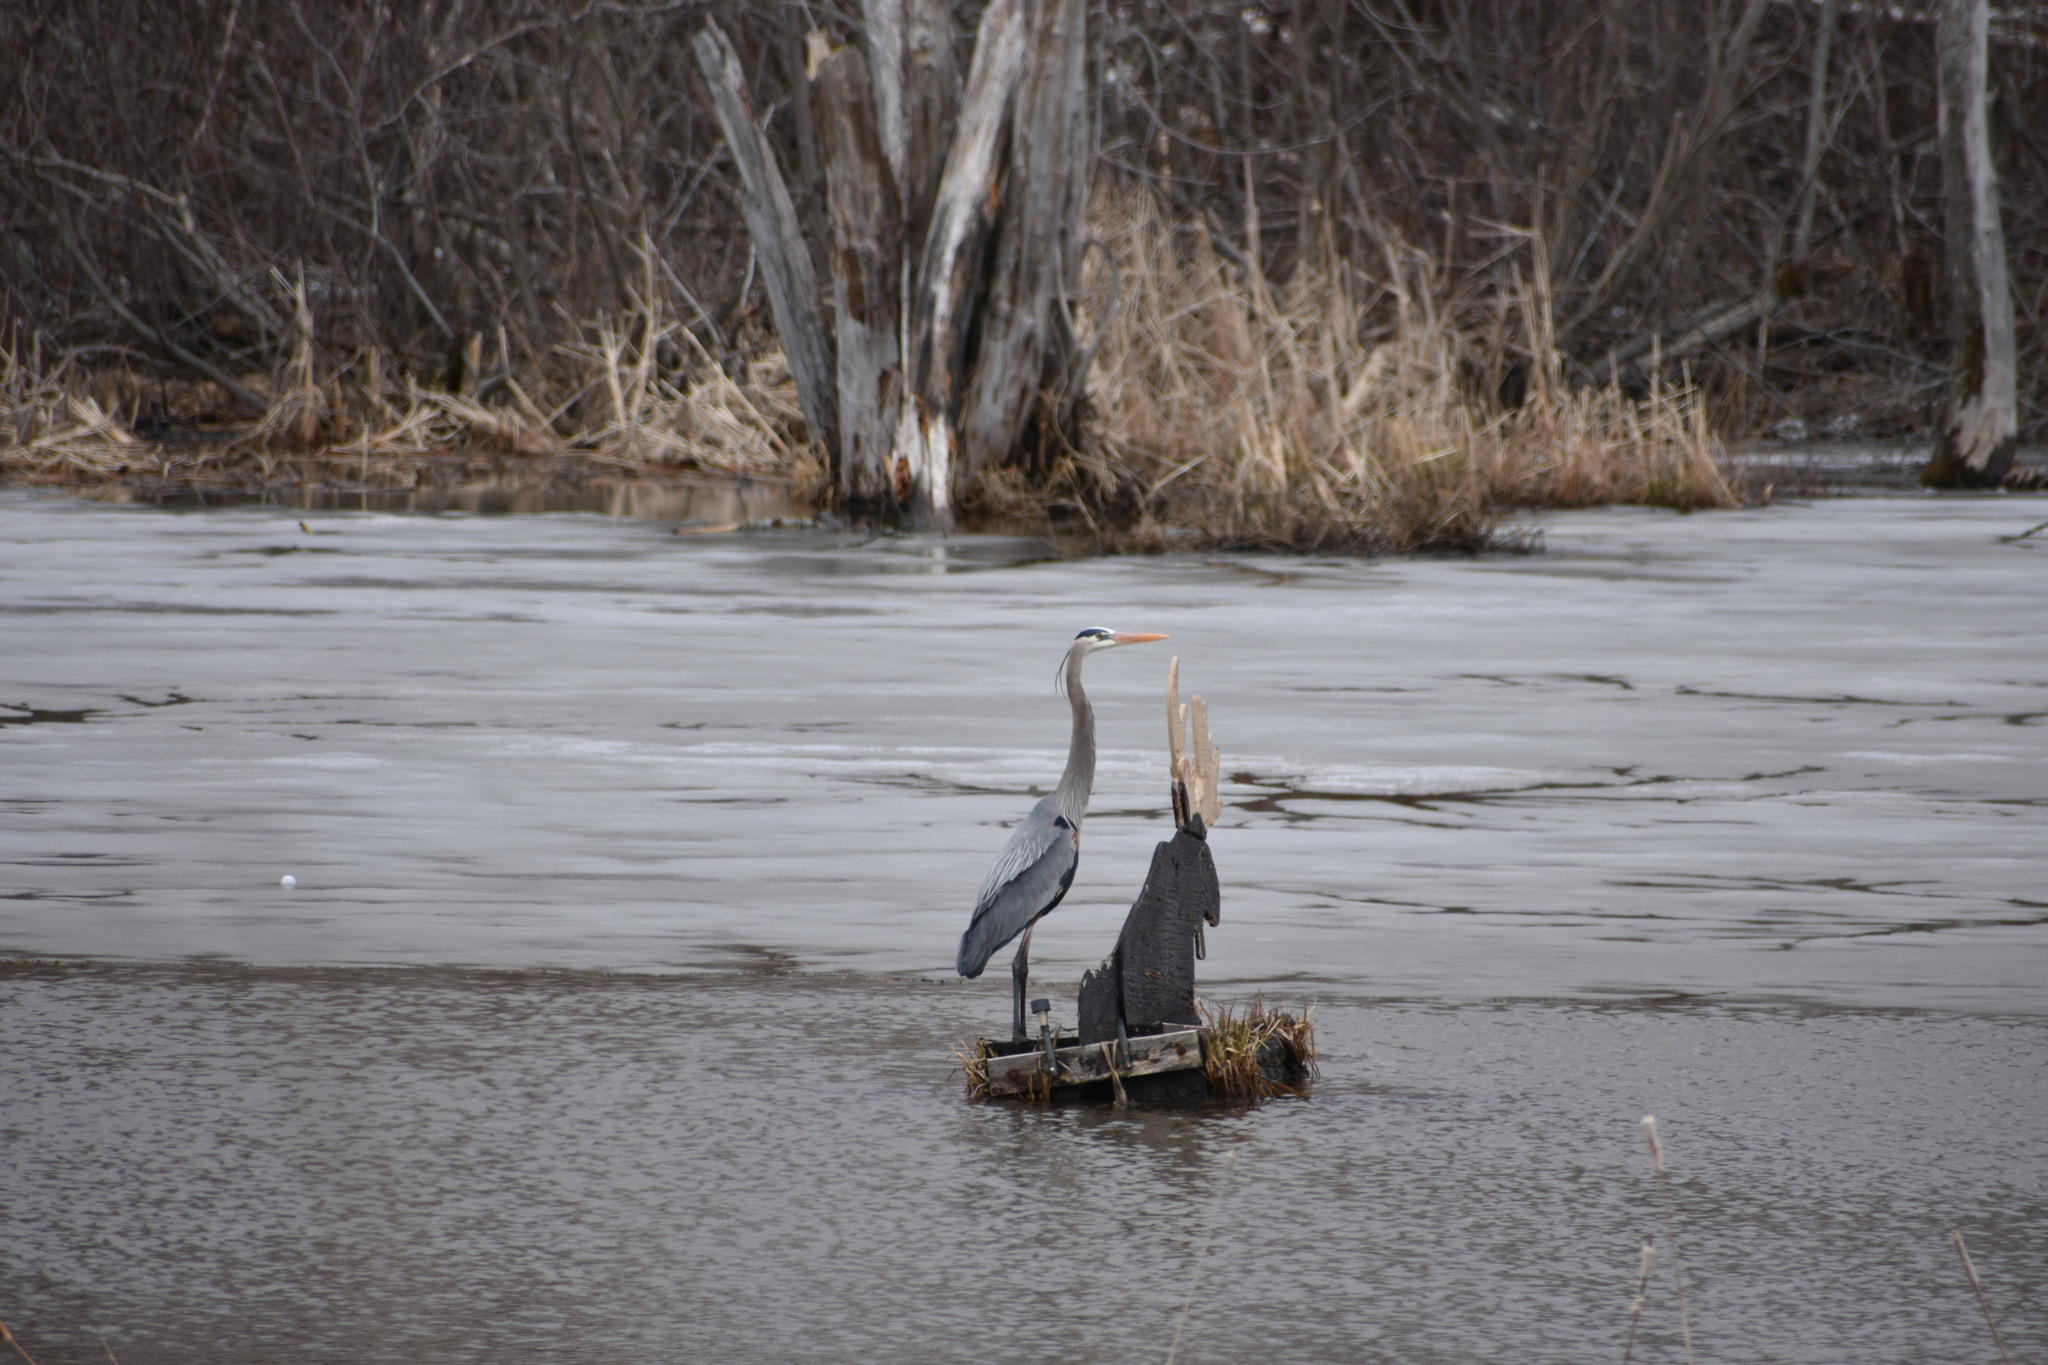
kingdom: Animalia
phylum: Chordata
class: Aves
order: Pelecaniformes
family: Ardeidae
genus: Ardea
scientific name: Ardea herodias
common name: Great blue heron
